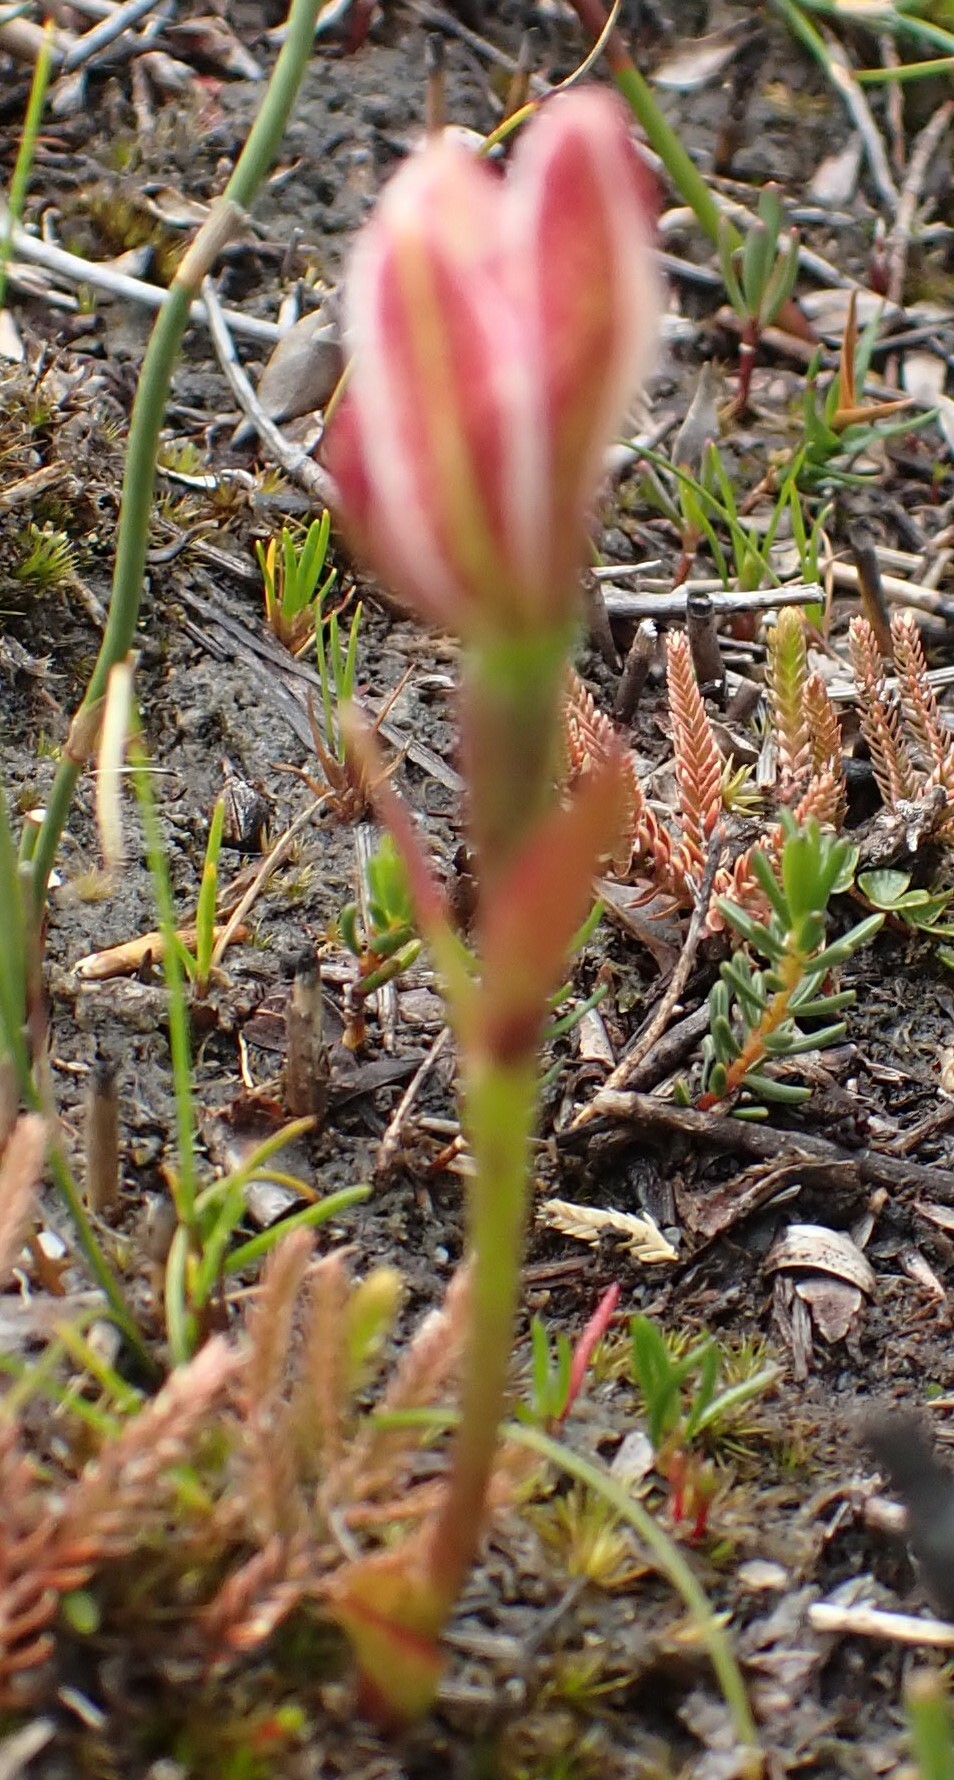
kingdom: Plantae
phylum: Tracheophyta
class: Liliopsida
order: Asparagales
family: Orchidaceae
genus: Burnettia
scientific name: Burnettia cuneata
